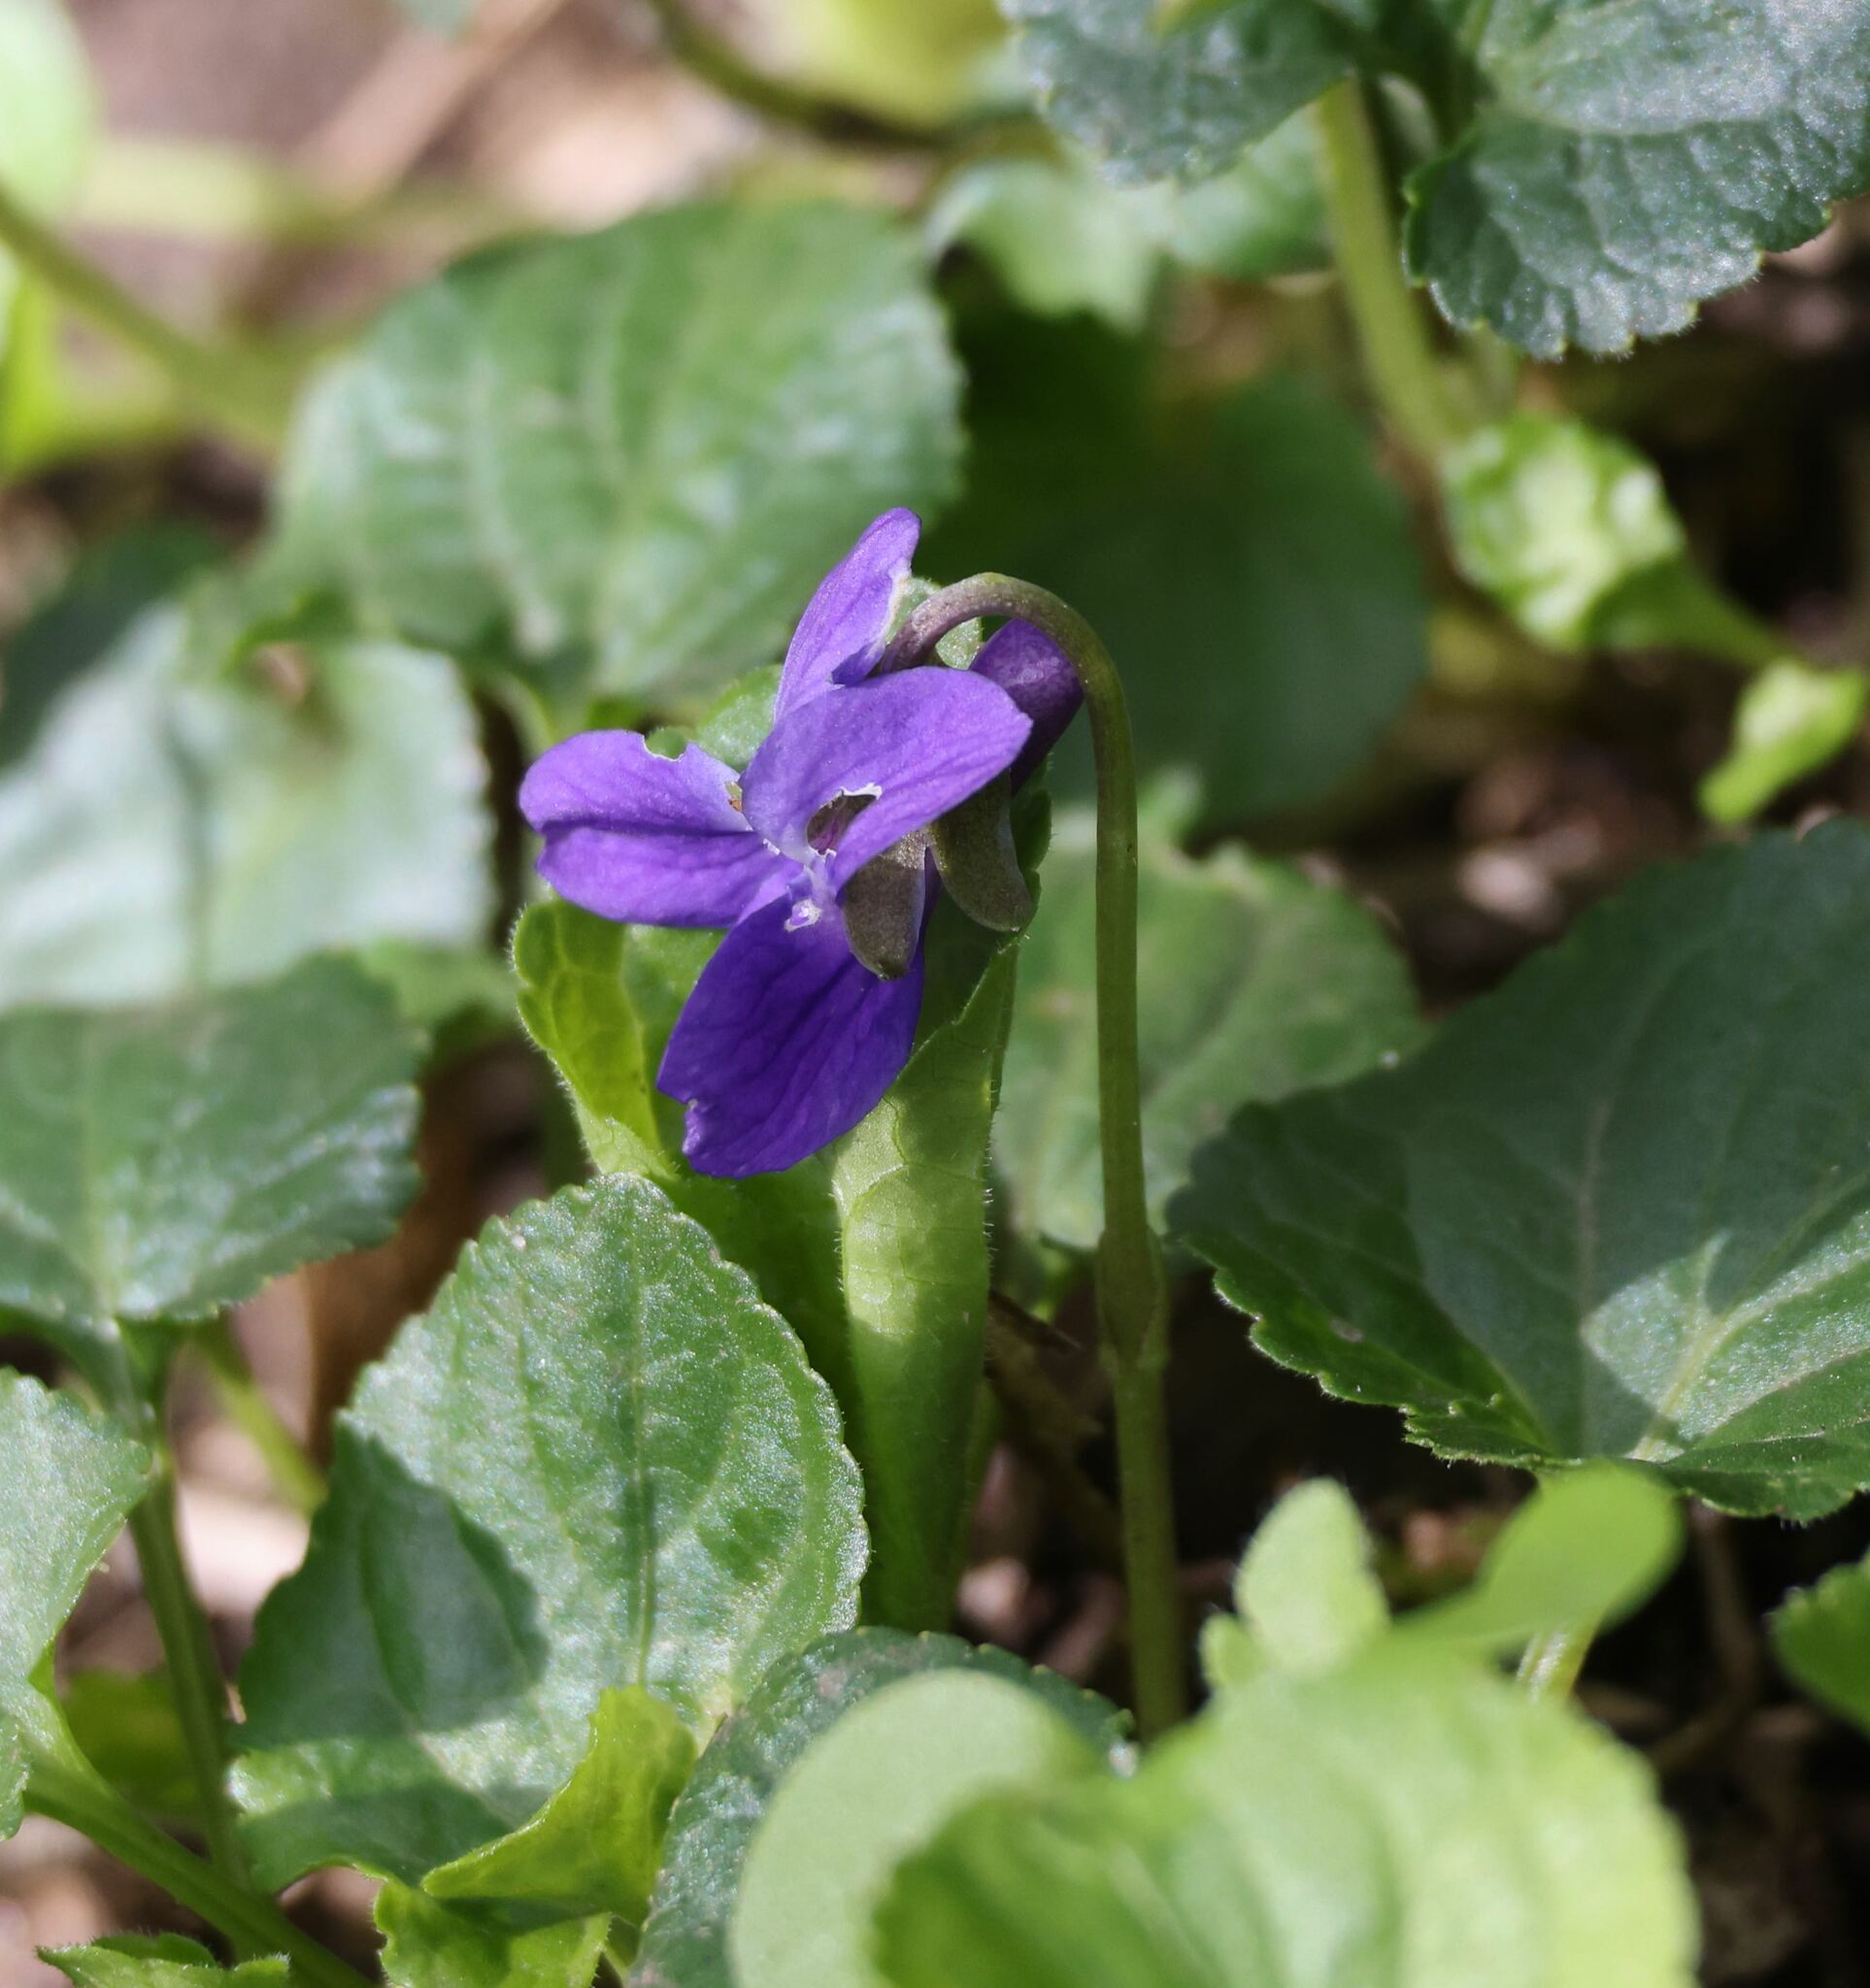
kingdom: Plantae
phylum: Tracheophyta
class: Magnoliopsida
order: Malpighiales
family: Violaceae
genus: Viola
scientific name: Viola odorata
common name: Sweet violet
